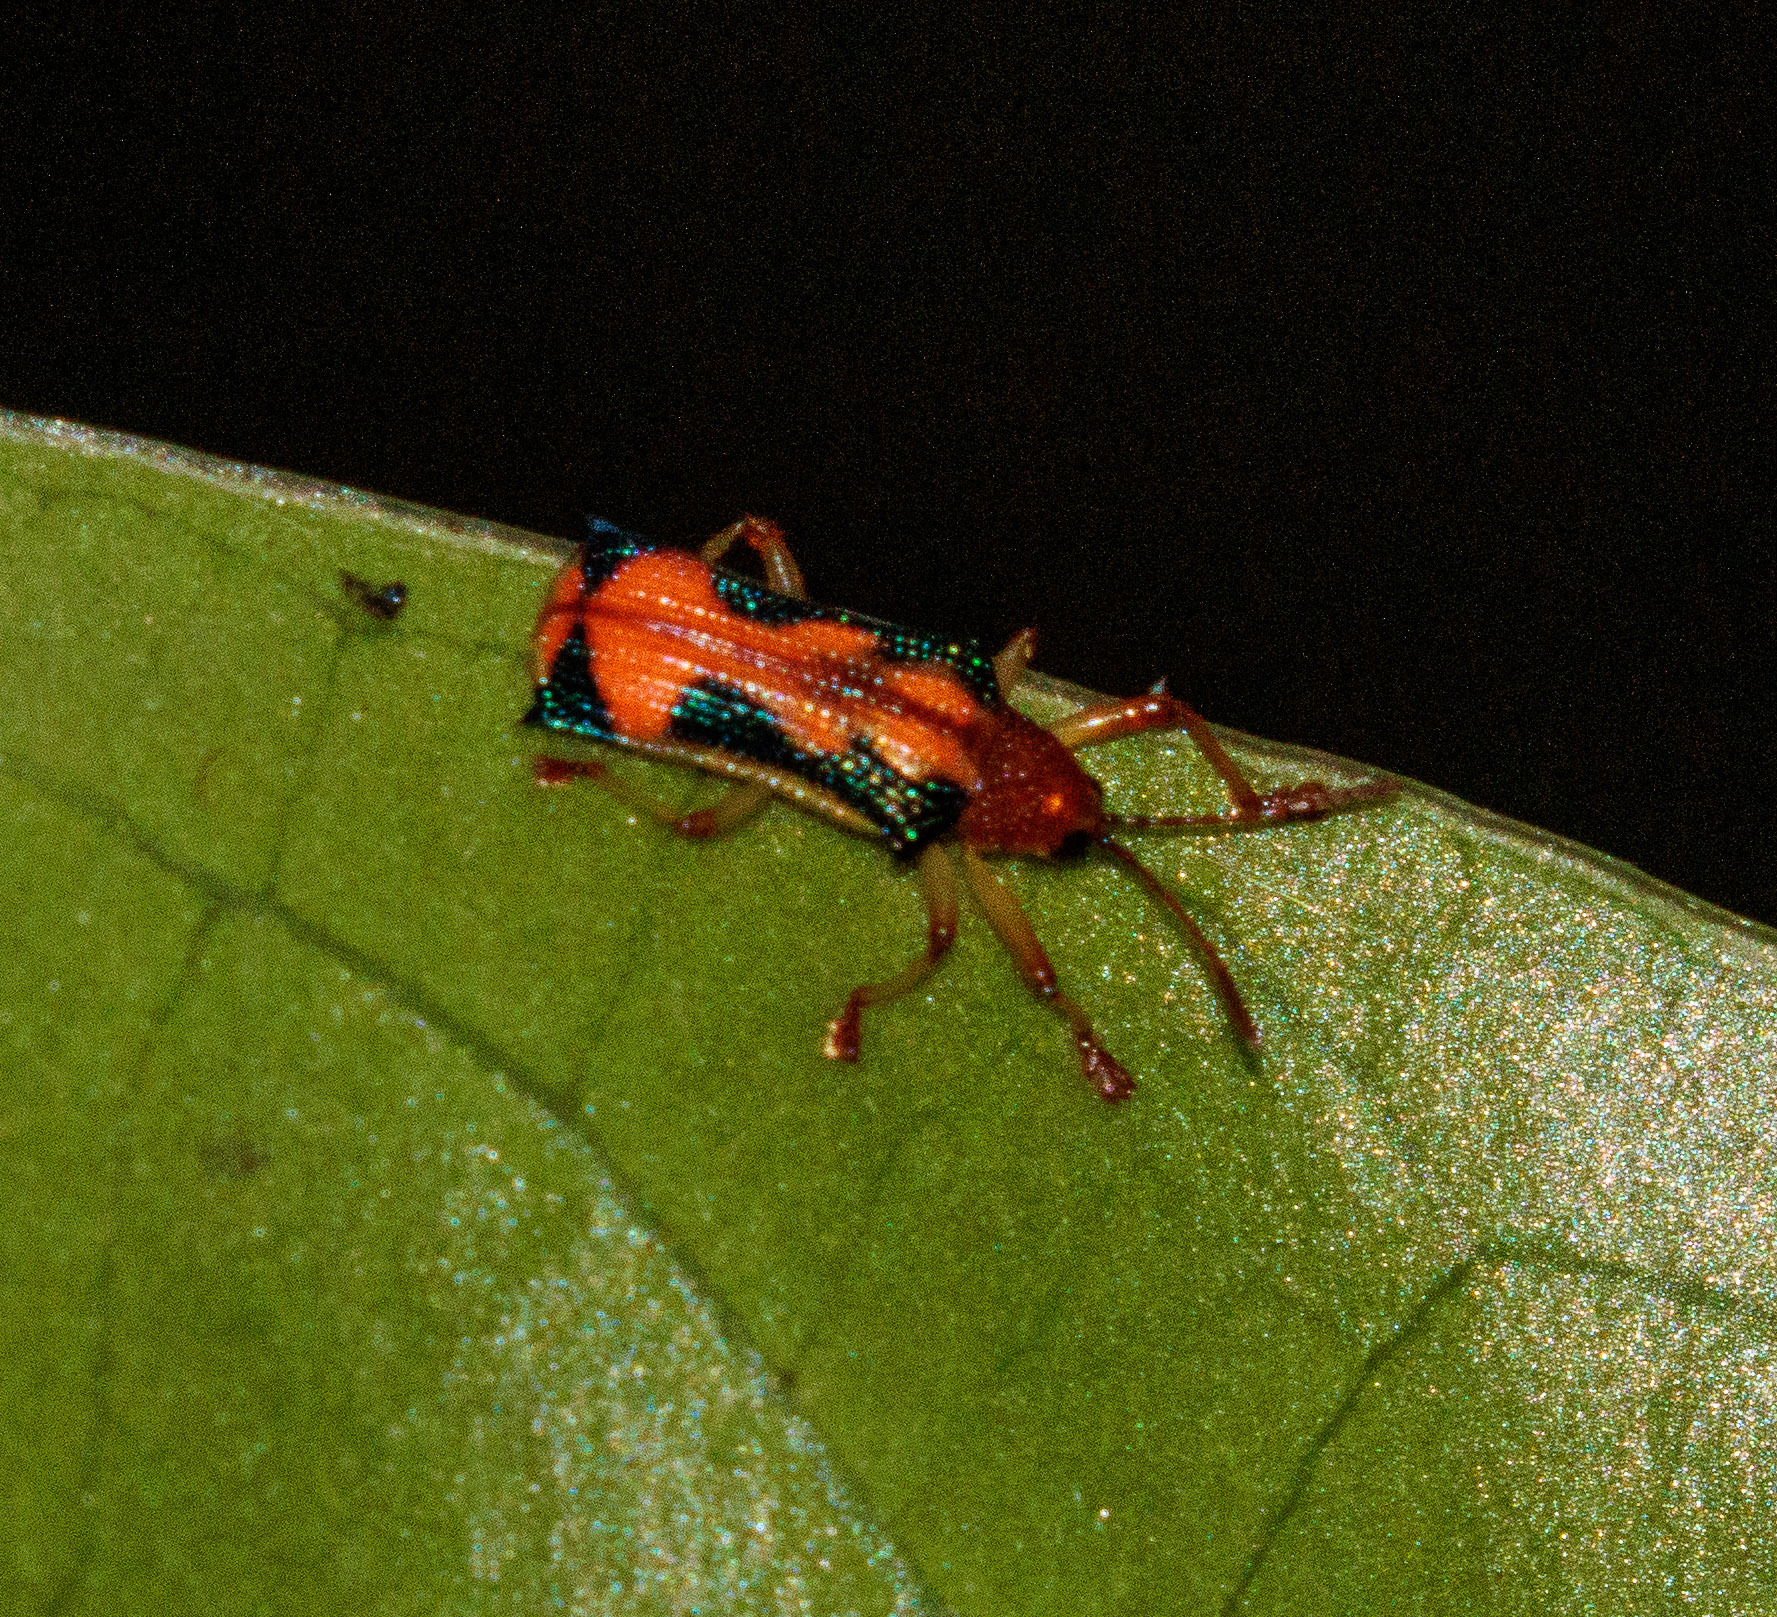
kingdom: Animalia
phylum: Arthropoda
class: Insecta
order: Coleoptera
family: Chrysomelidae
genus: Sceloenopla
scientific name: Sceloenopla bahiana
